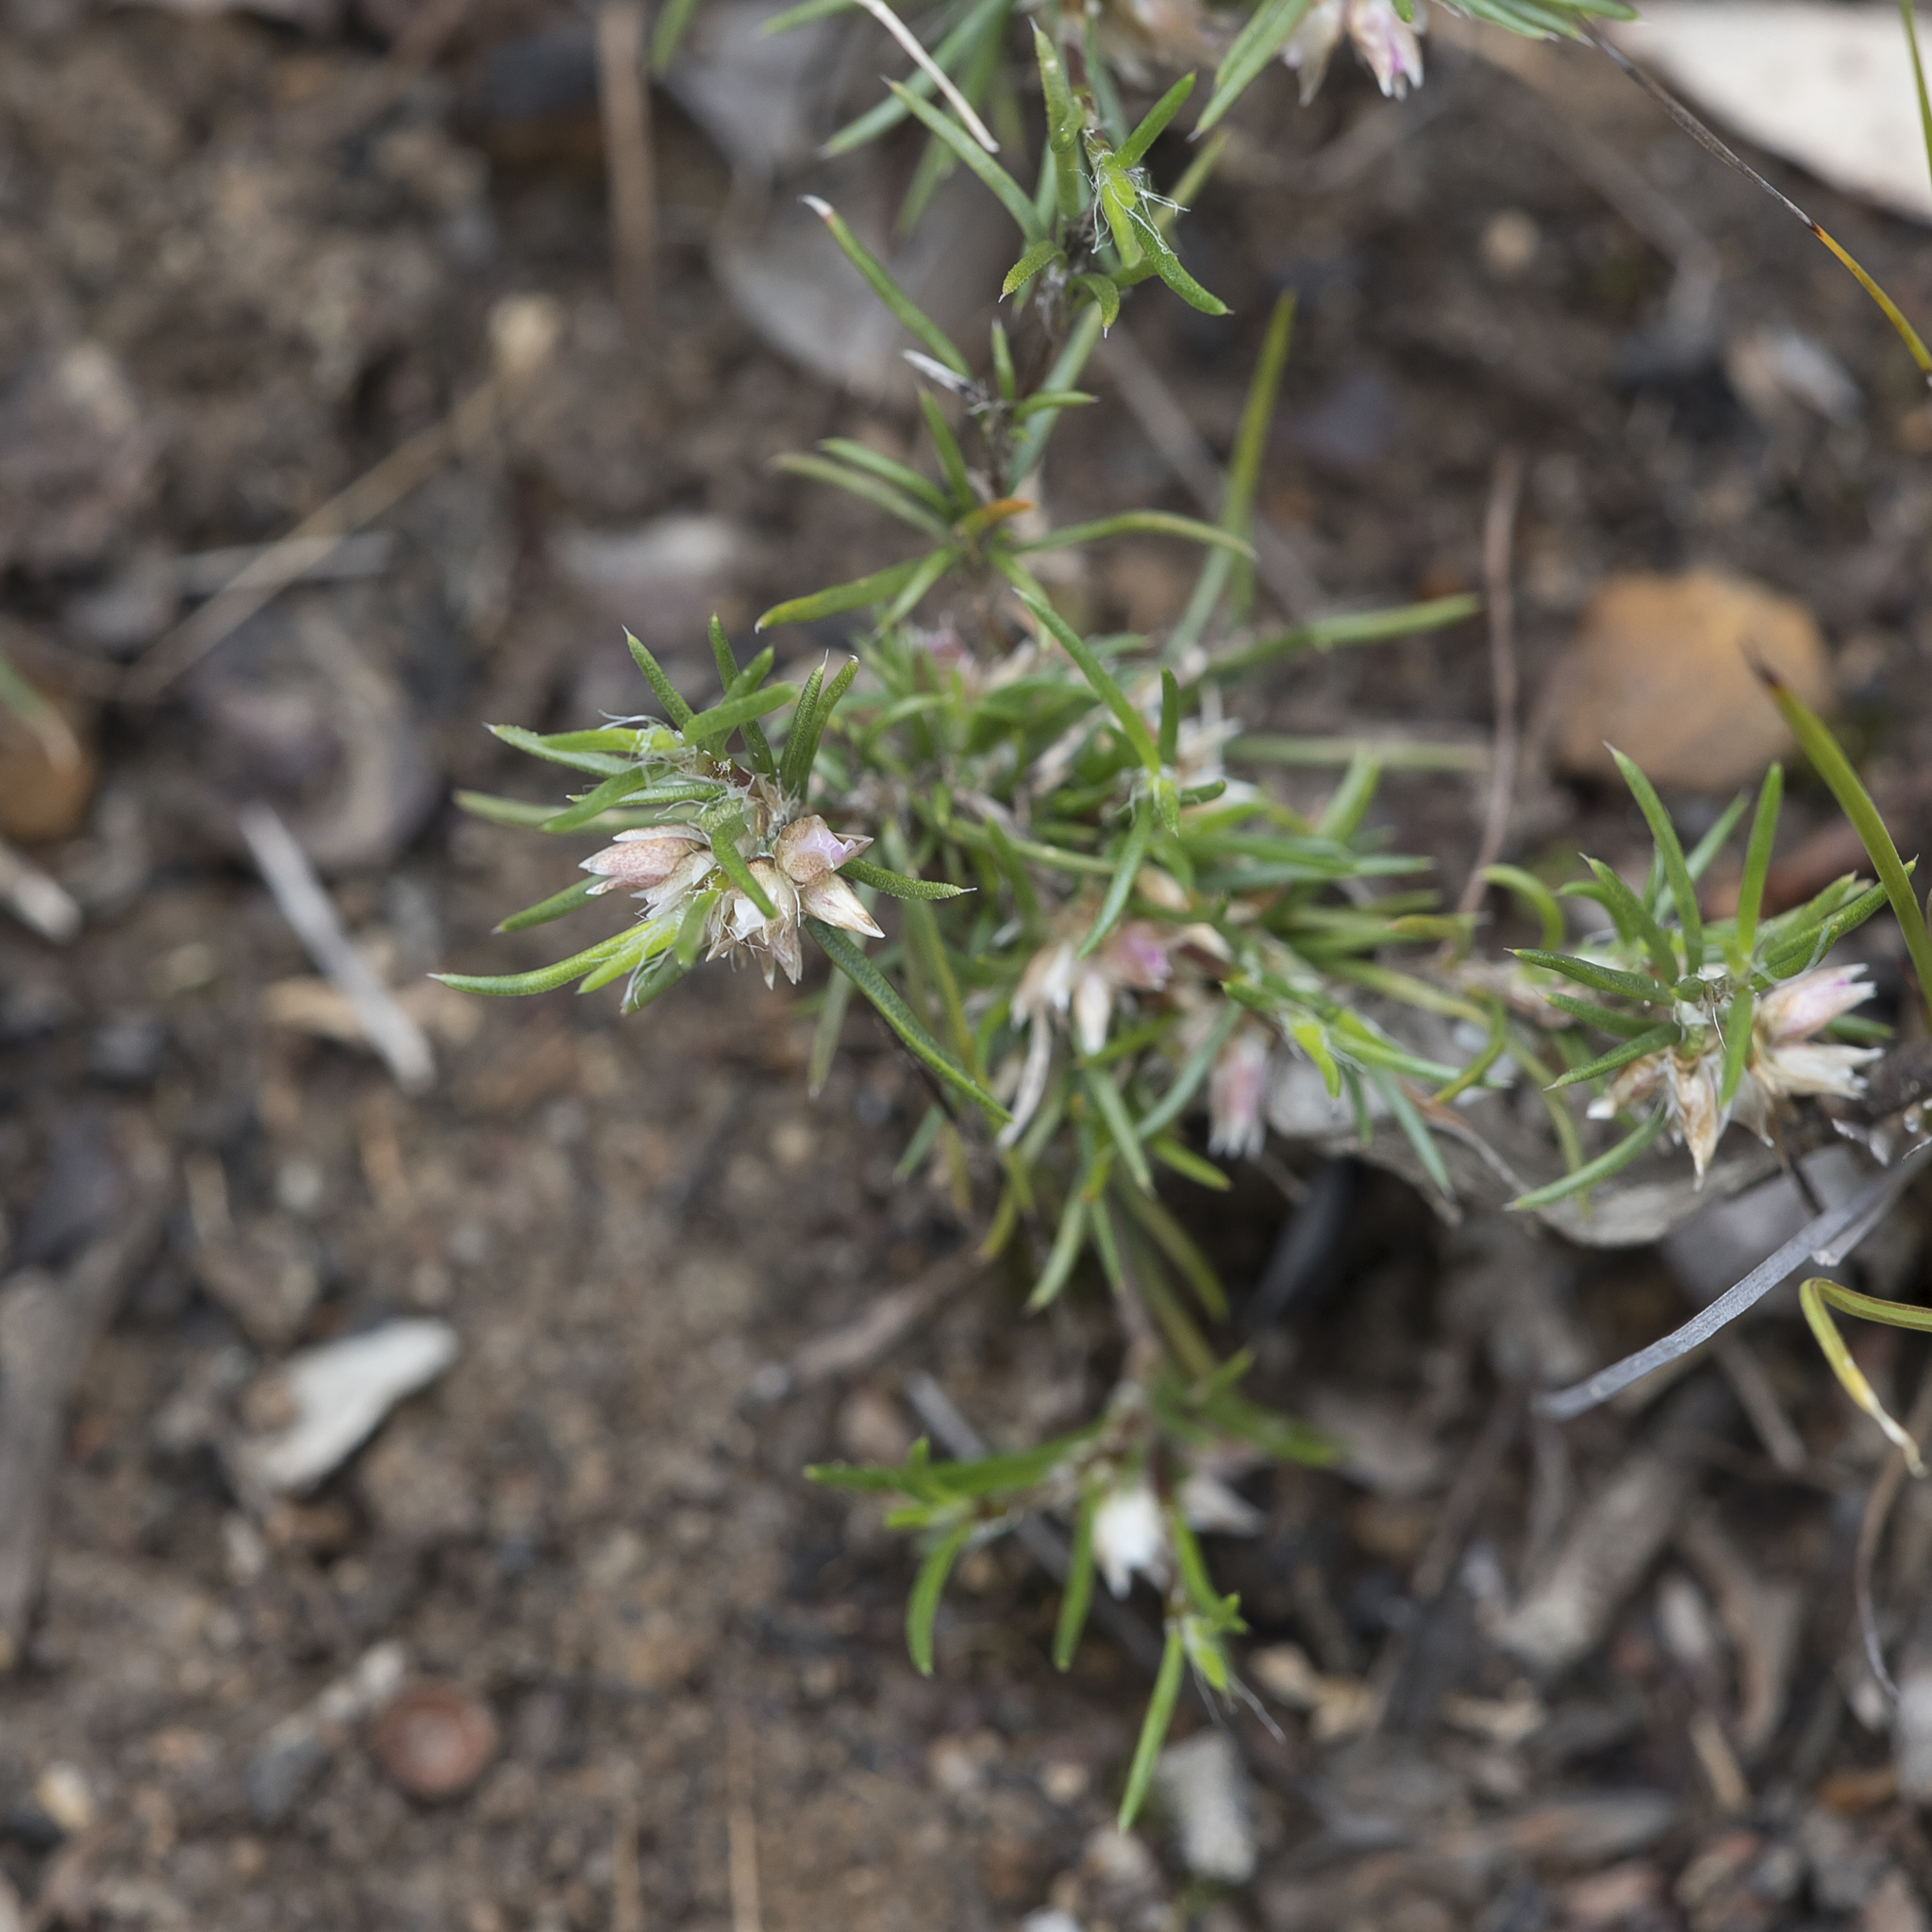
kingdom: Plantae
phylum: Tracheophyta
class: Liliopsida
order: Asparagales
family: Asparagaceae
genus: Laxmannia
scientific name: Laxmannia orientalis
